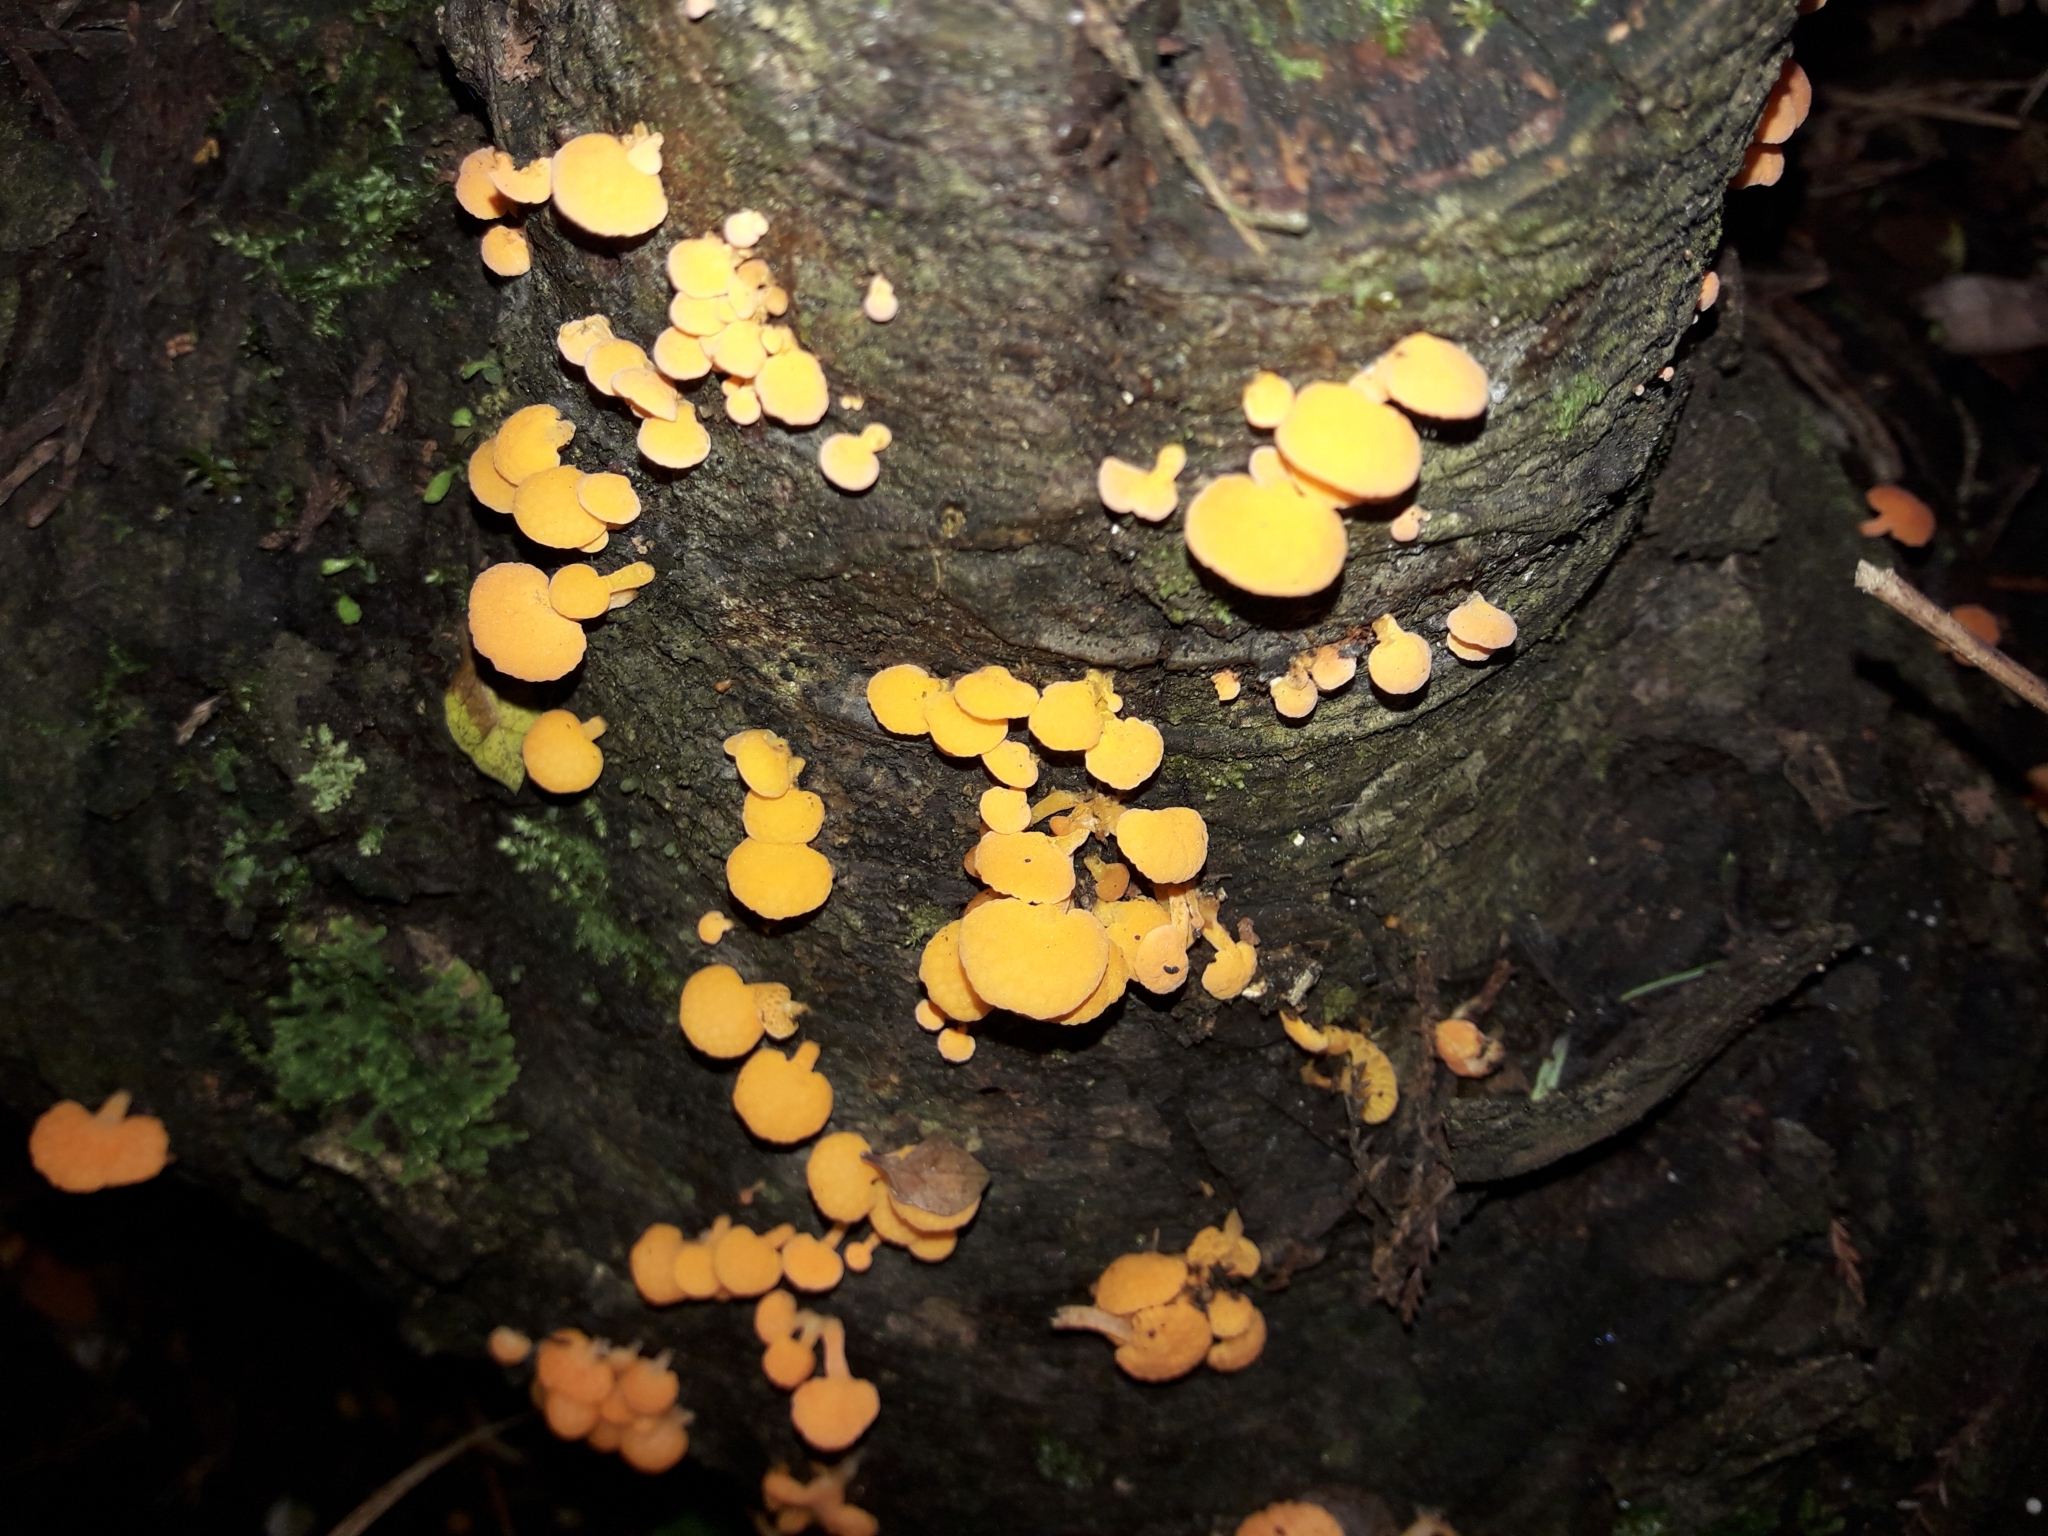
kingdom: Fungi
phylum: Basidiomycota
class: Agaricomycetes
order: Agaricales
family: Mycenaceae
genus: Favolaschia
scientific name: Favolaschia claudopus
